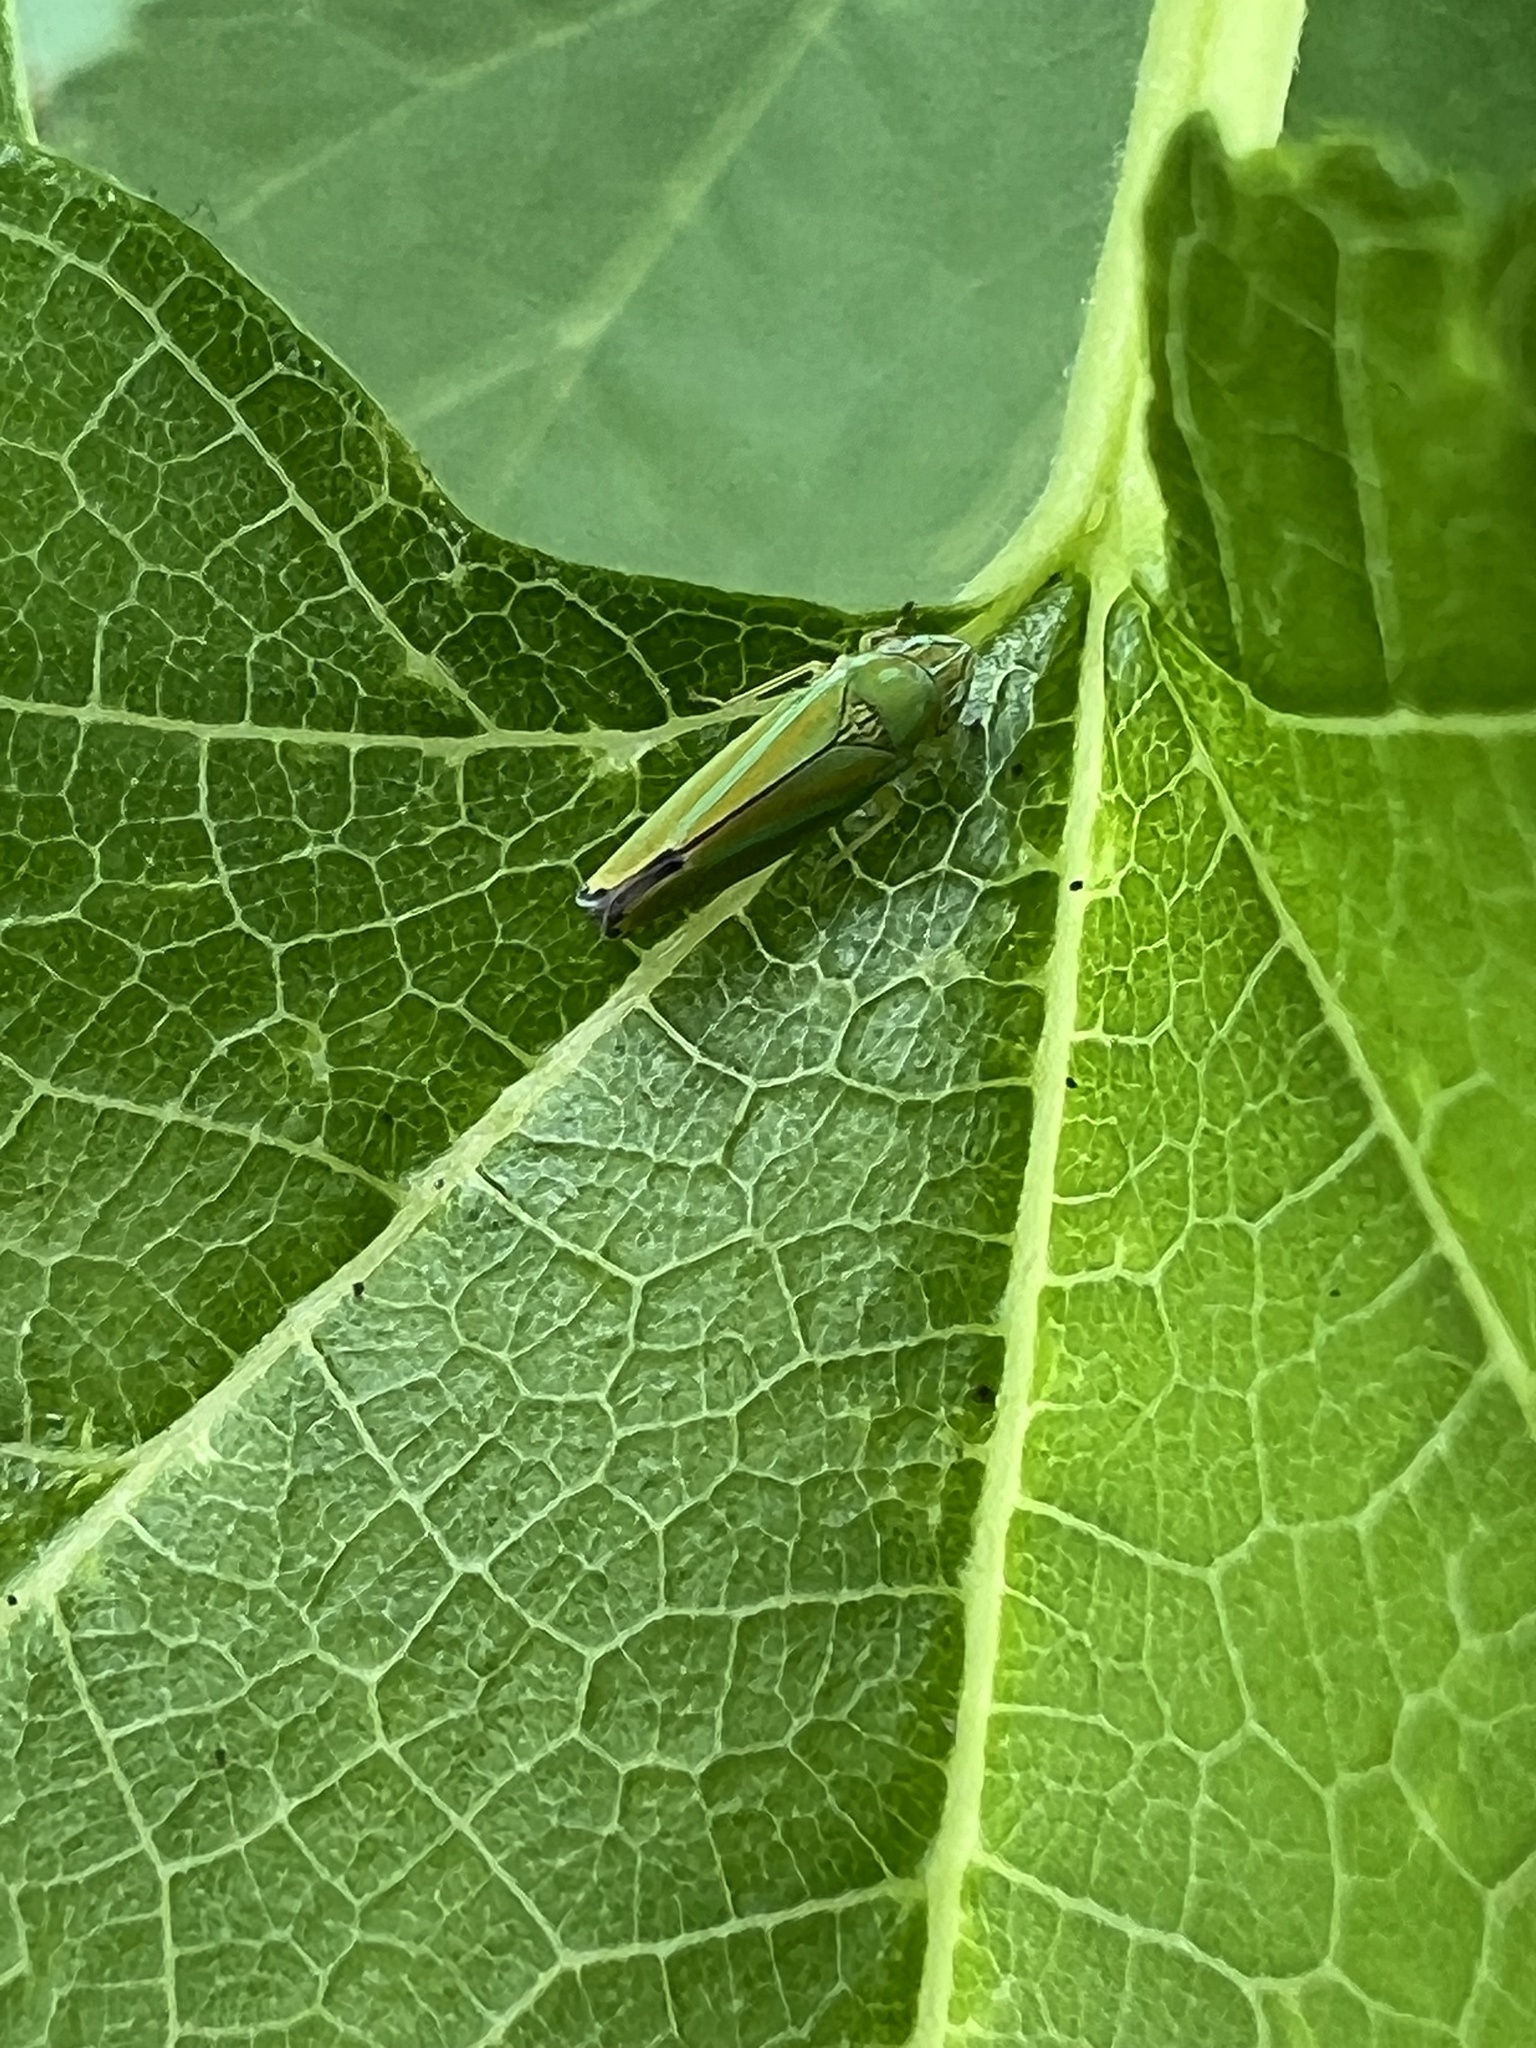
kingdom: Animalia
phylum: Arthropoda
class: Insecta
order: Hemiptera
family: Cicadellidae
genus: Graphocephala
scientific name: Graphocephala versuta
